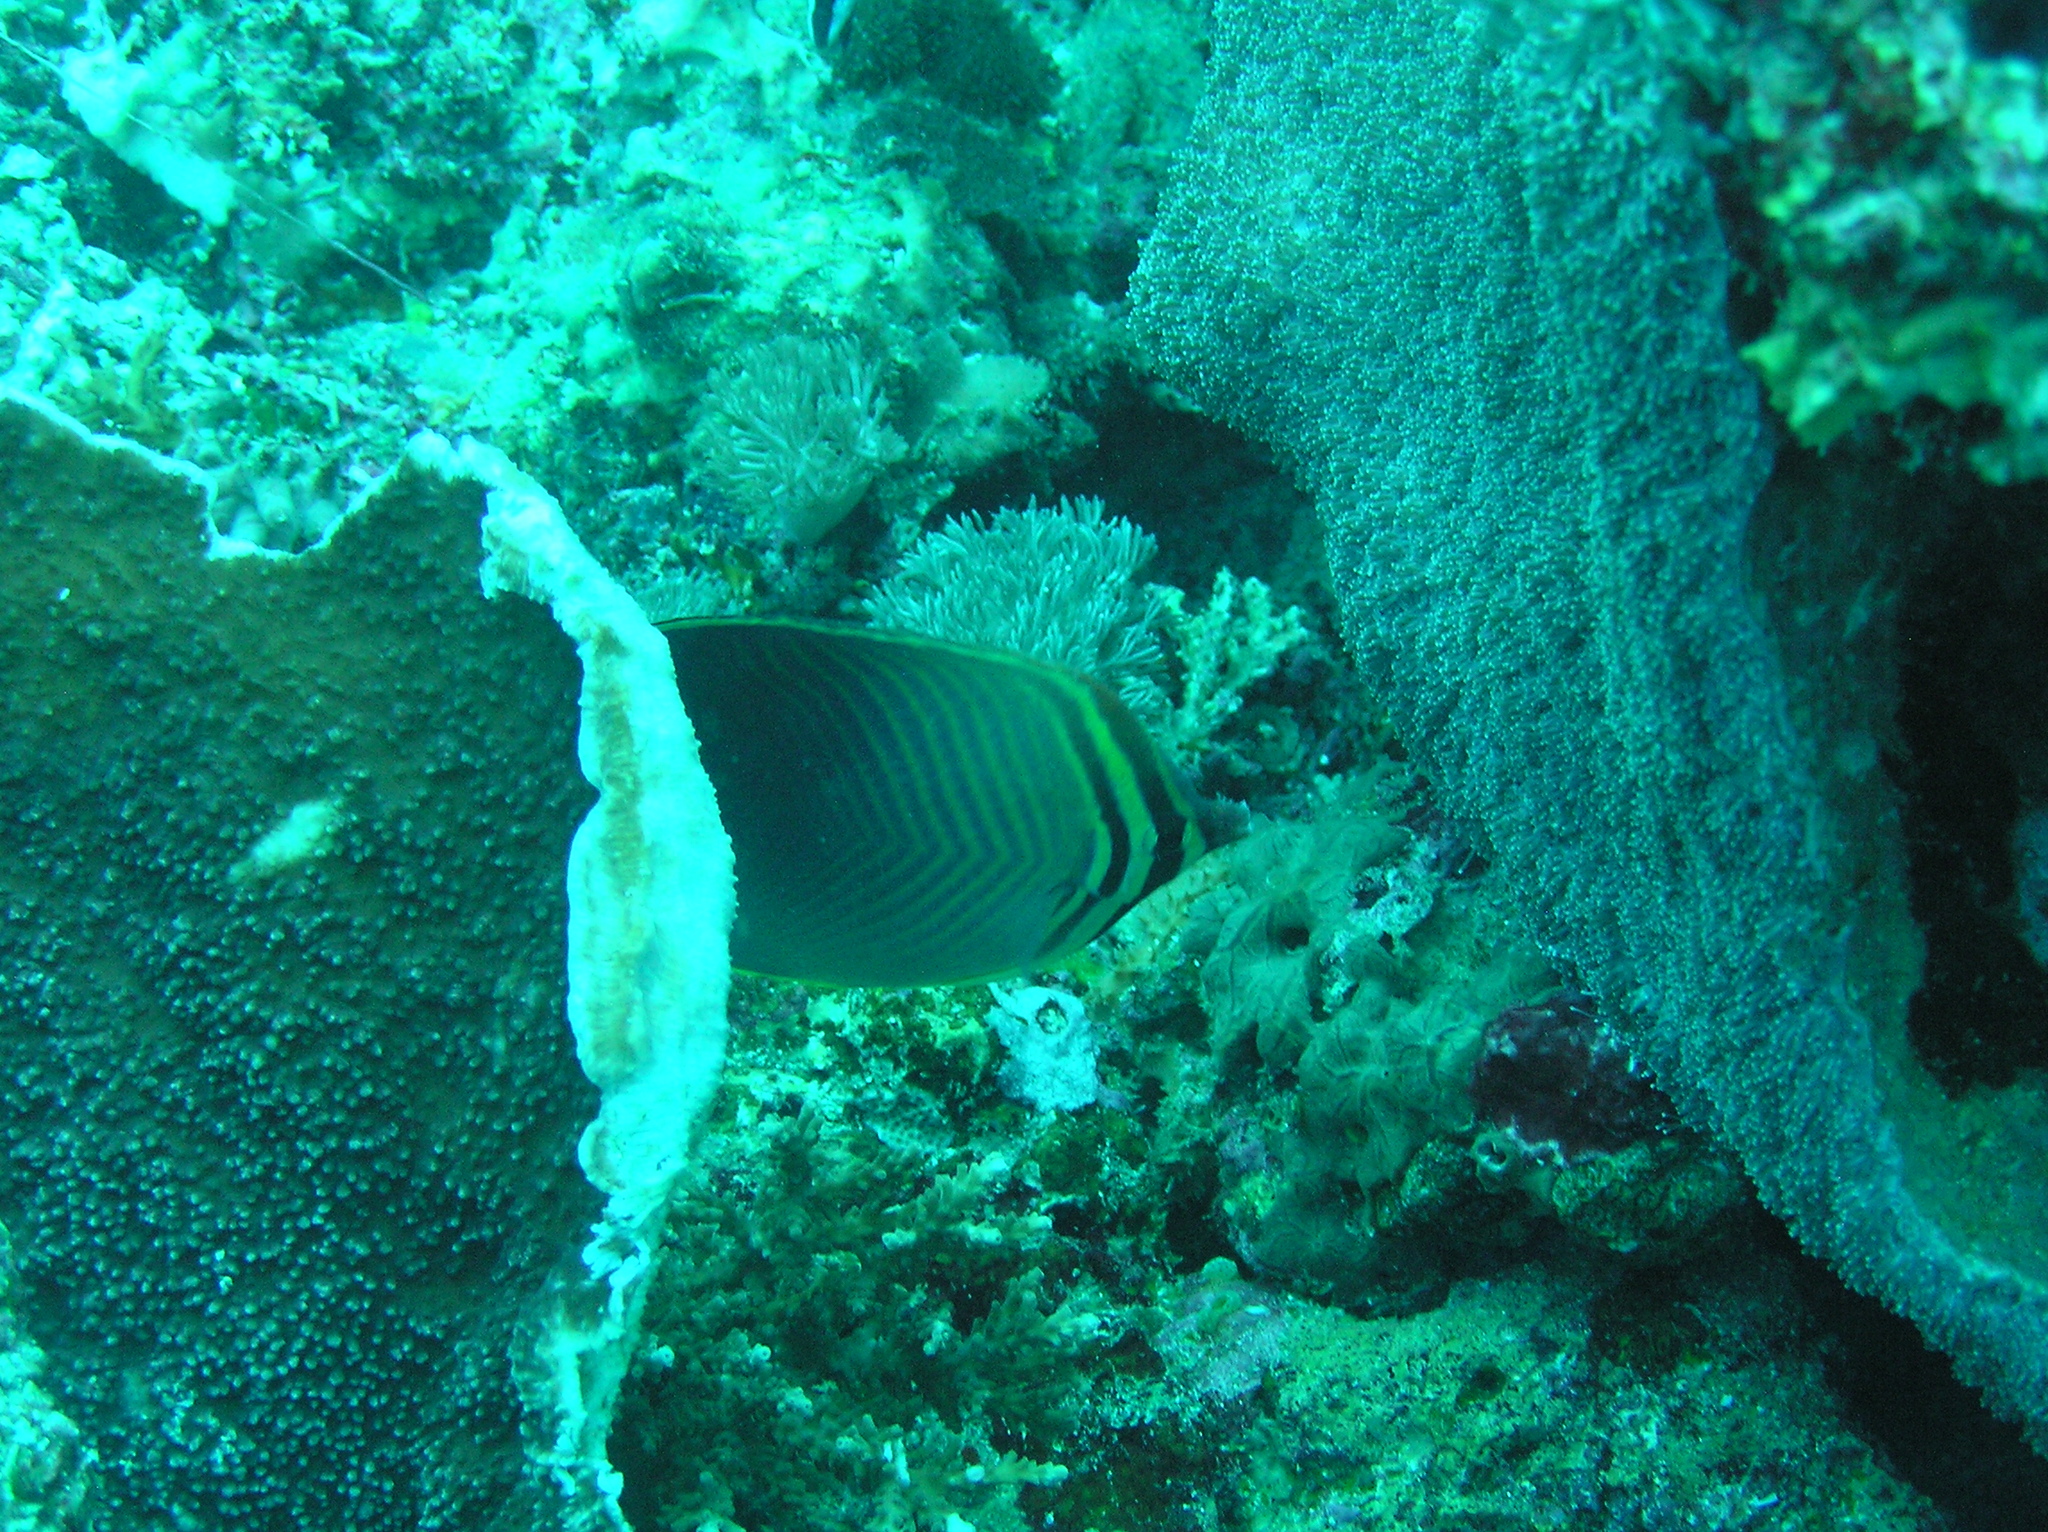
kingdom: Animalia
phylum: Chordata
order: Perciformes
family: Chaetodontidae
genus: Chaetodon
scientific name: Chaetodon baronessa
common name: Triangular butterflyfish
